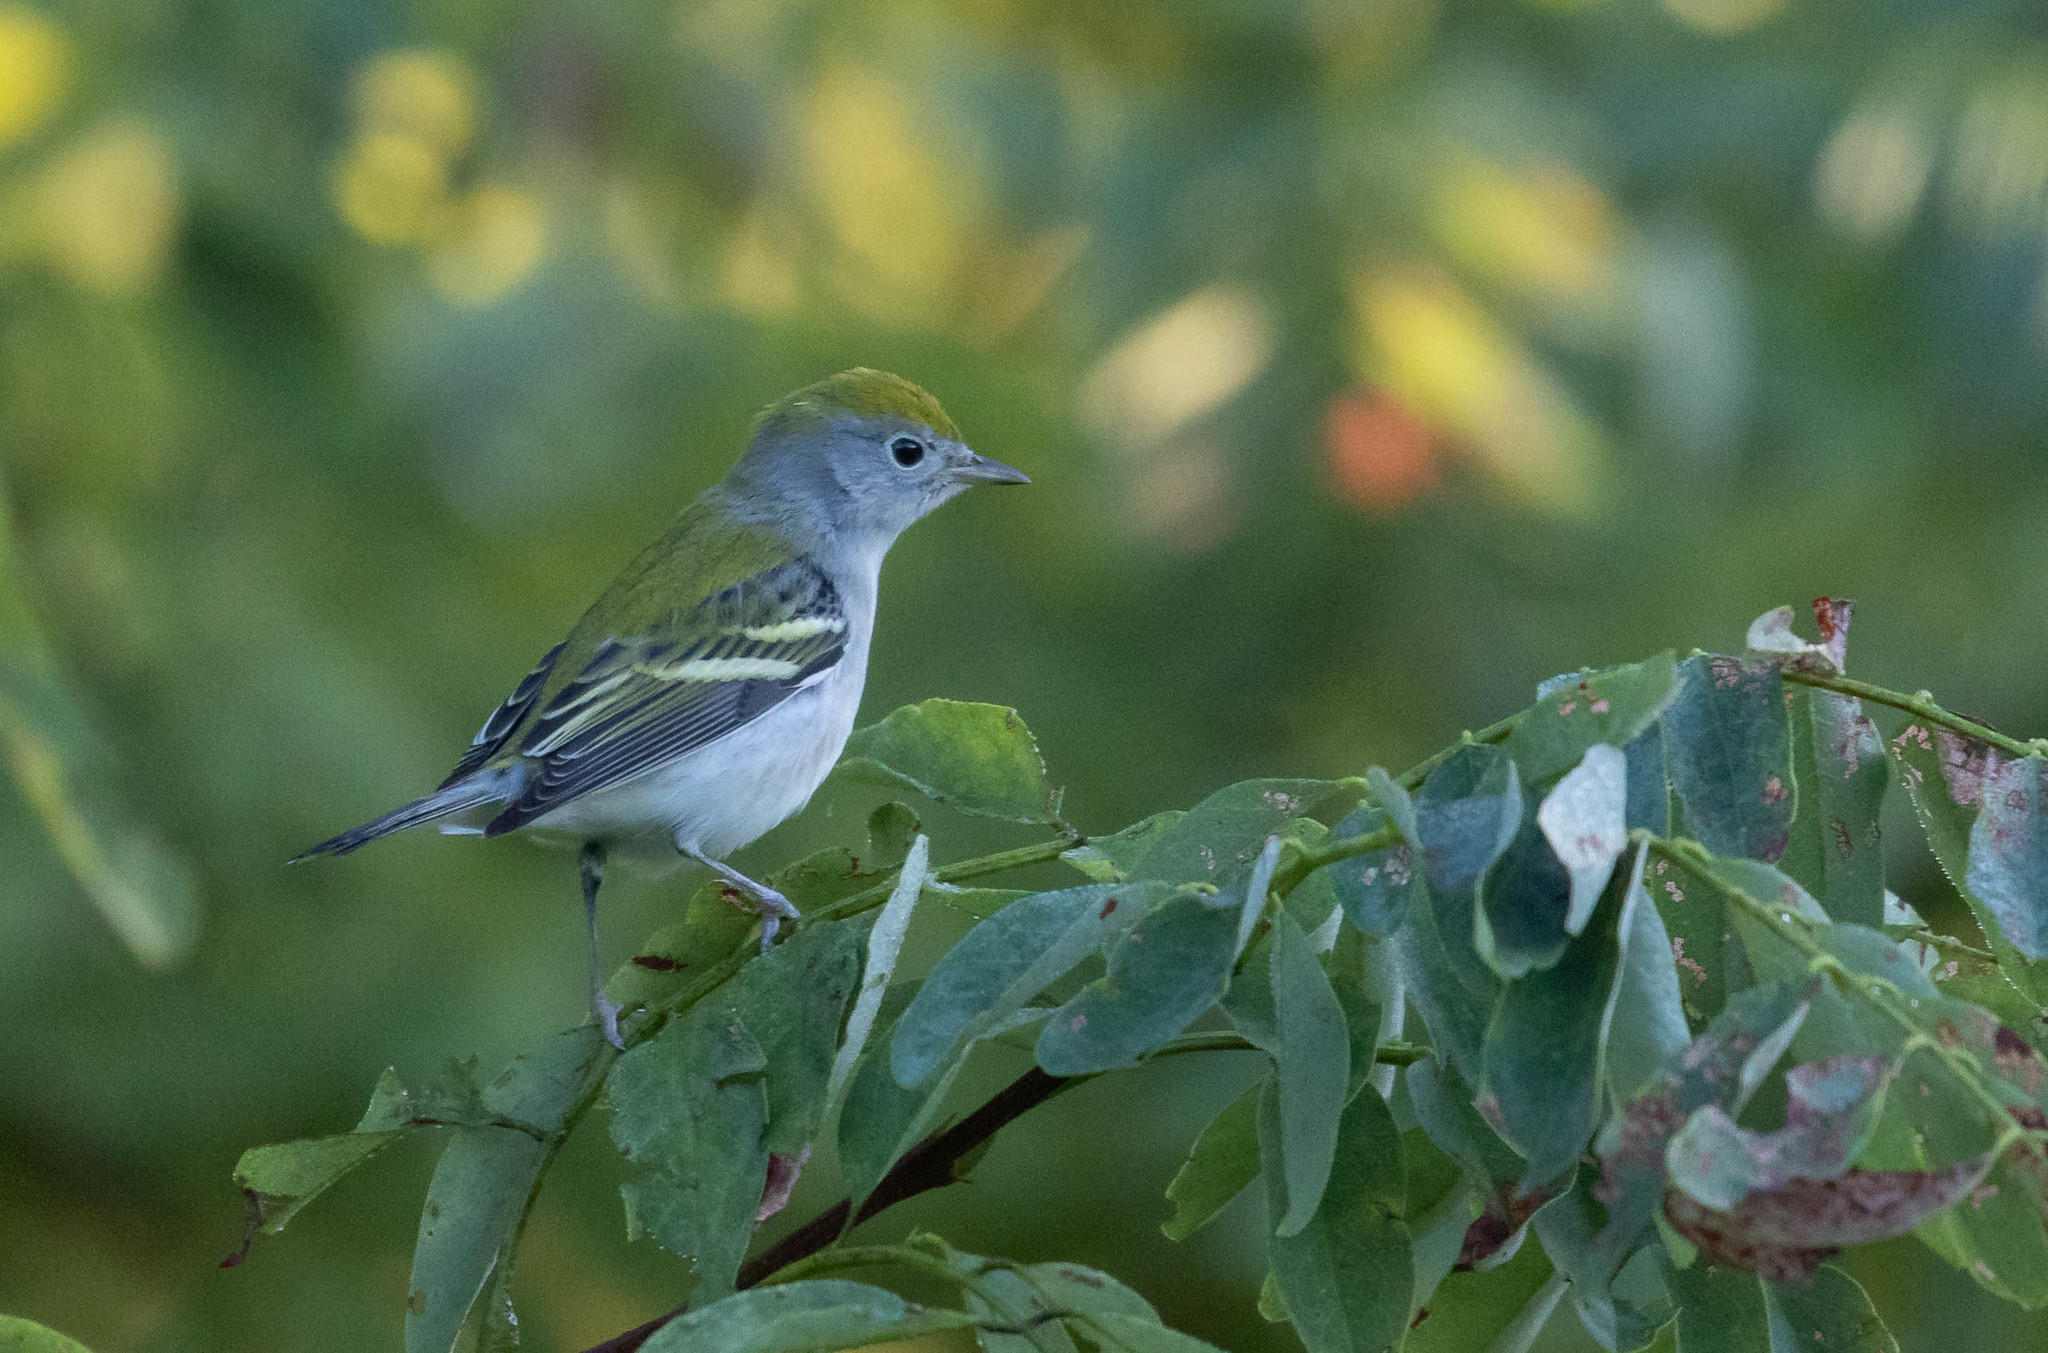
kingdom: Animalia
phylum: Chordata
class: Aves
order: Passeriformes
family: Parulidae
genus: Setophaga
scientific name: Setophaga pensylvanica
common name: Chestnut-sided warbler
